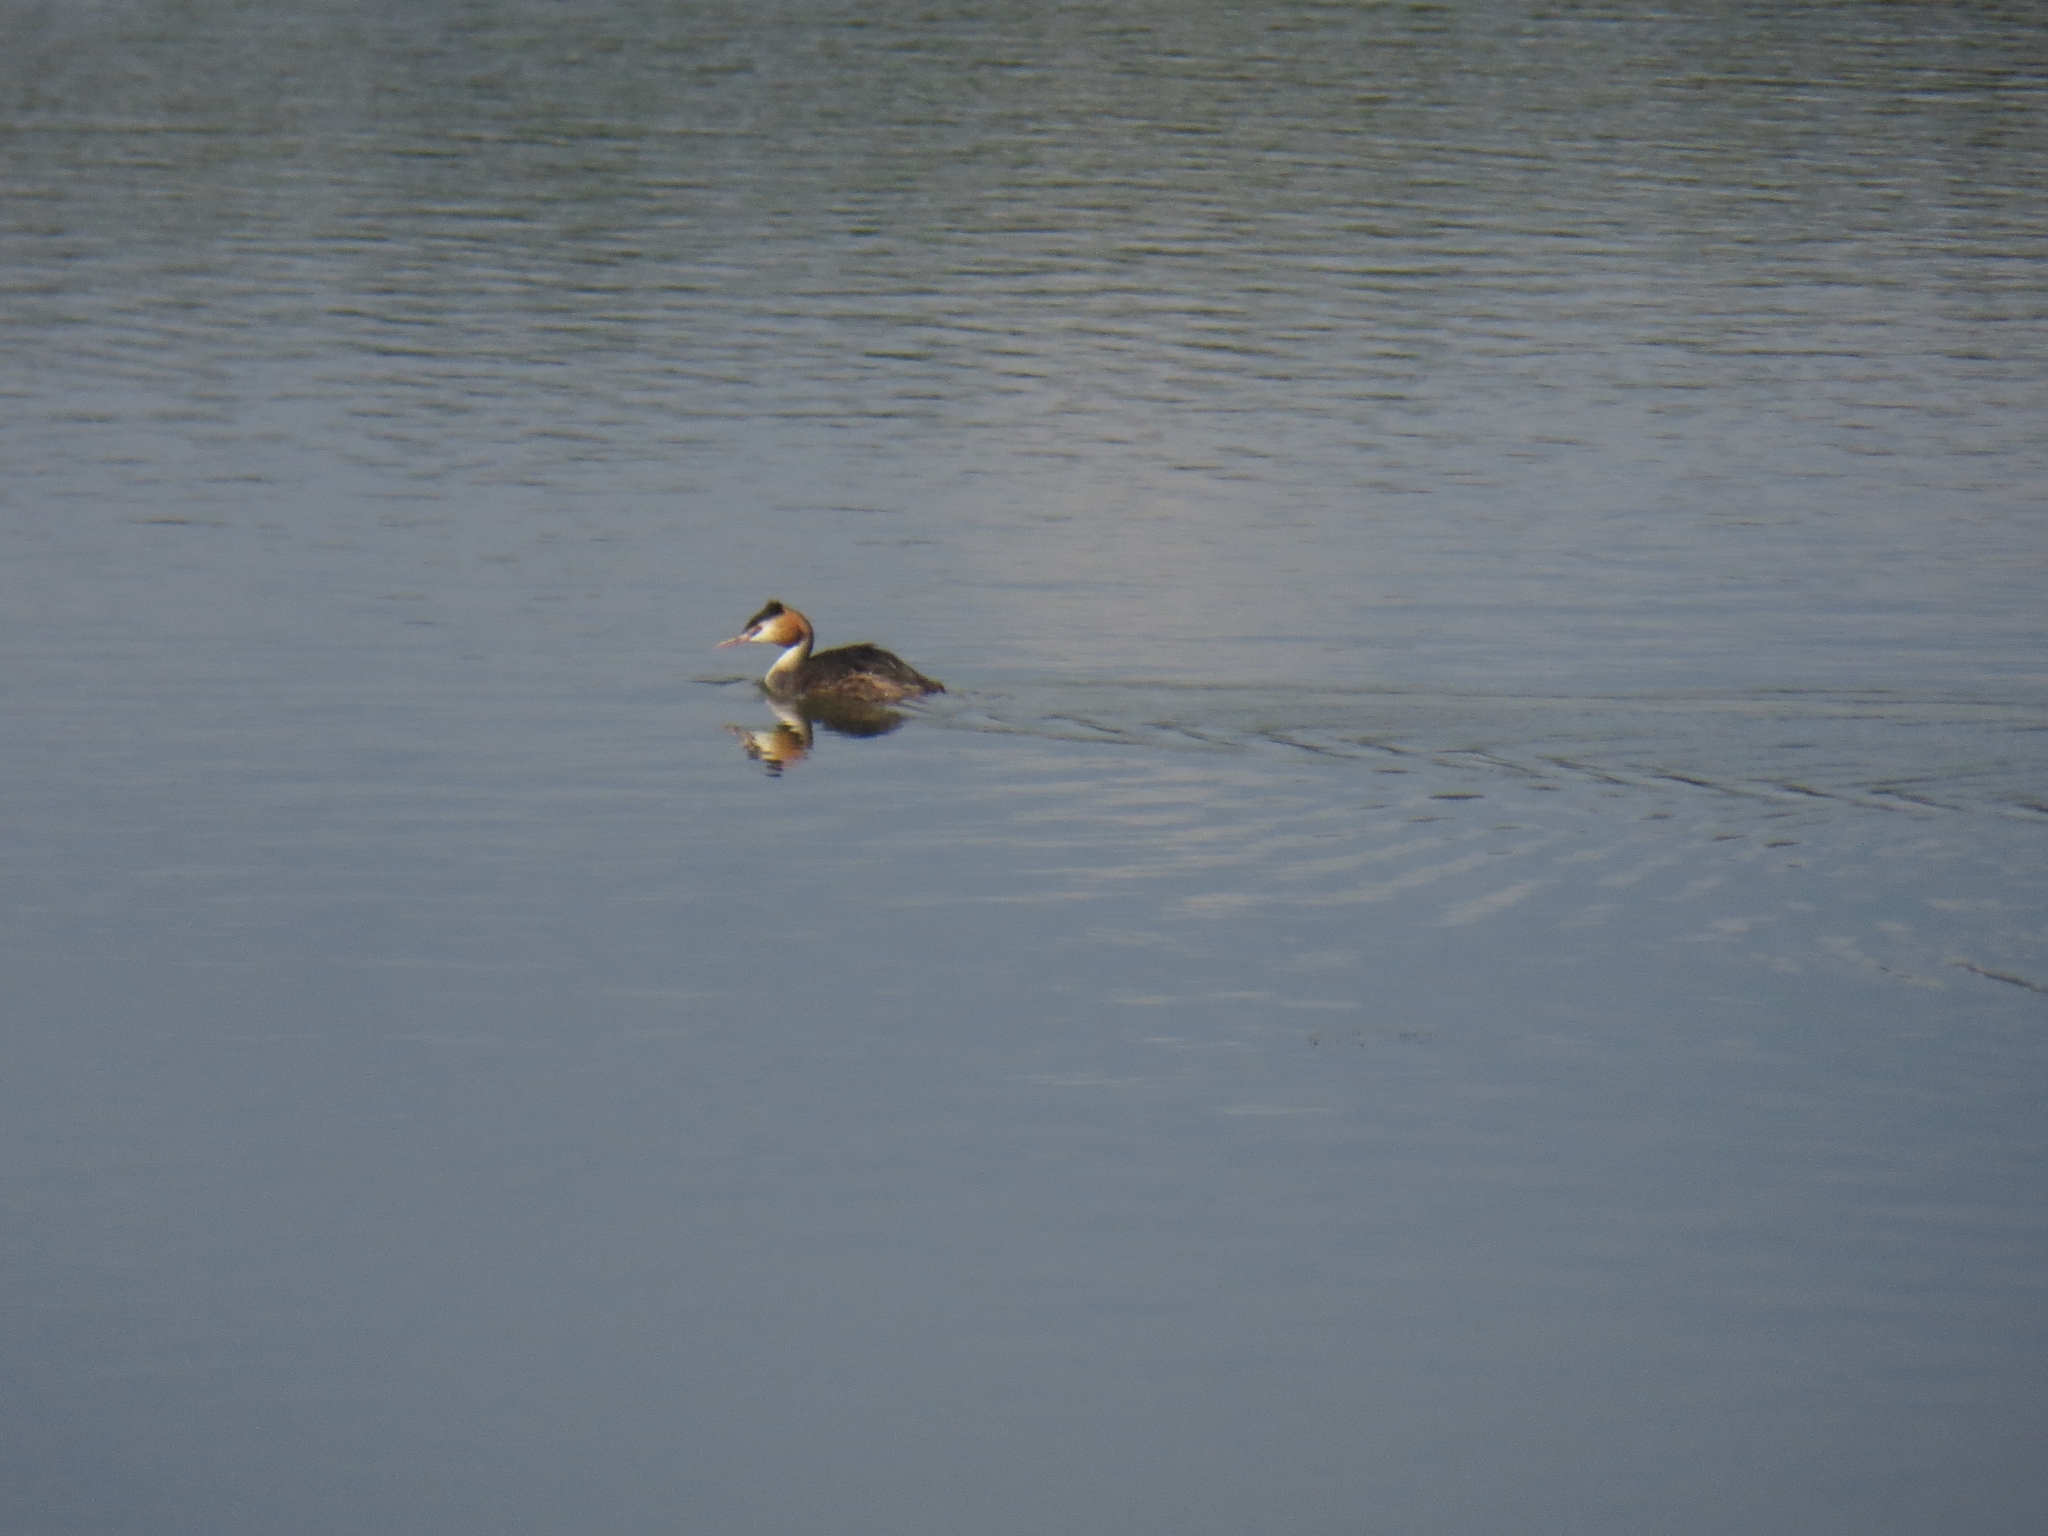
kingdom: Animalia
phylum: Chordata
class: Aves
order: Podicipediformes
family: Podicipedidae
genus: Podiceps
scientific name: Podiceps cristatus
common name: Great crested grebe
